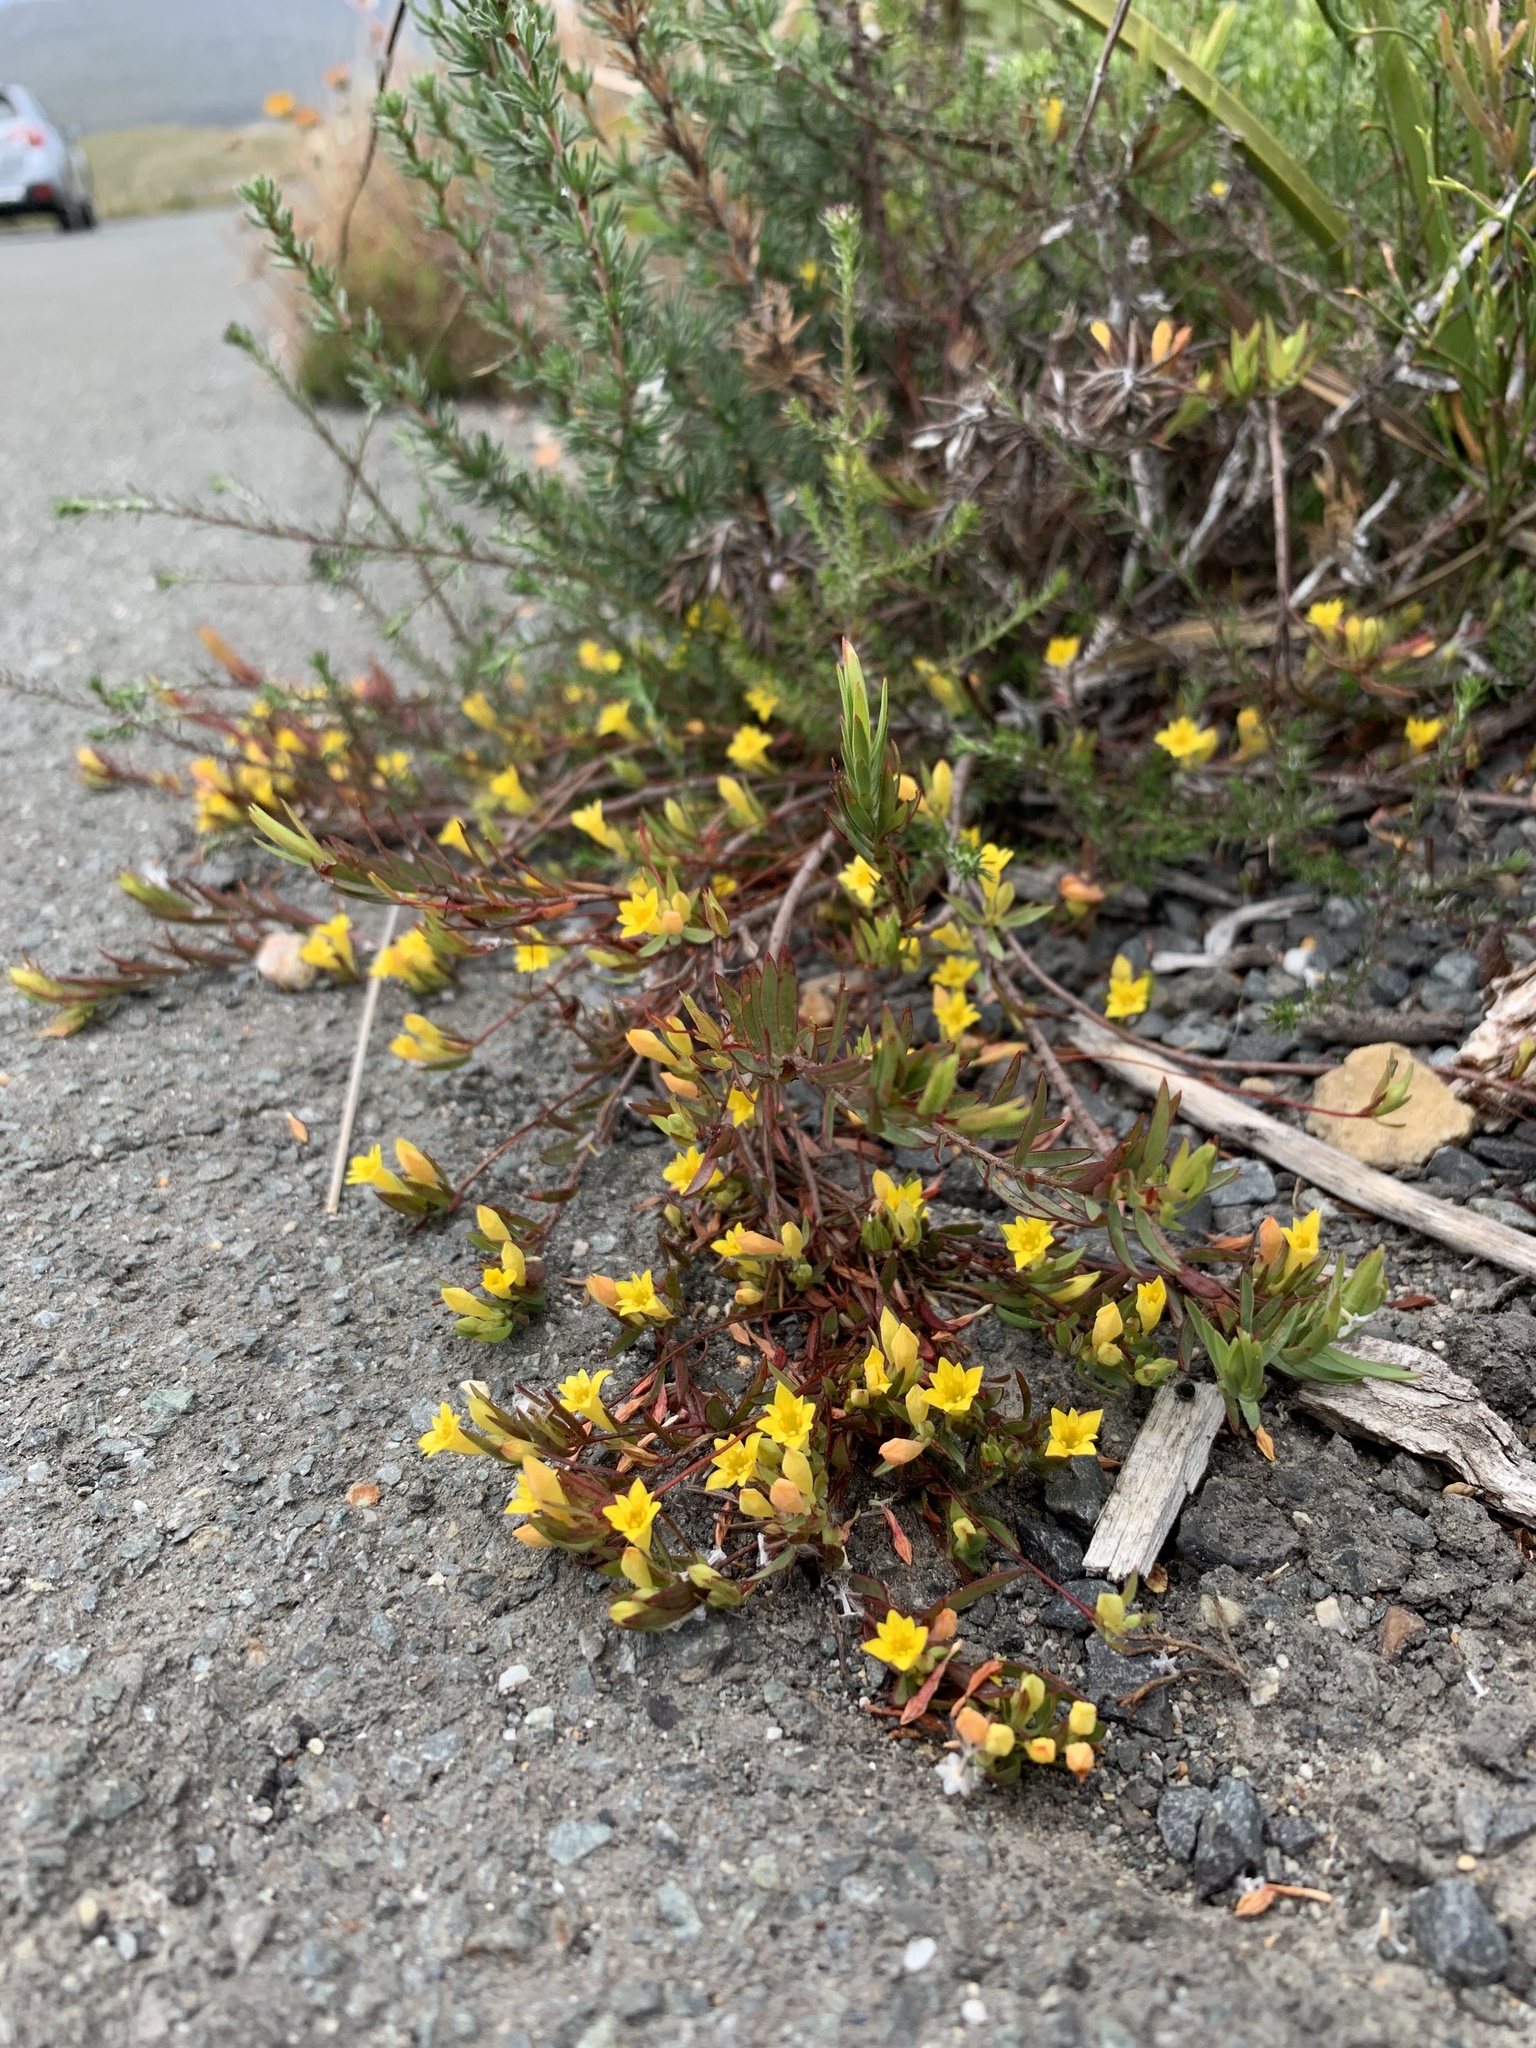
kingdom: Plantae
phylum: Tracheophyta
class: Magnoliopsida
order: Malvales
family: Thymelaeaceae
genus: Gnidia
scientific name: Gnidia juniperifolia
